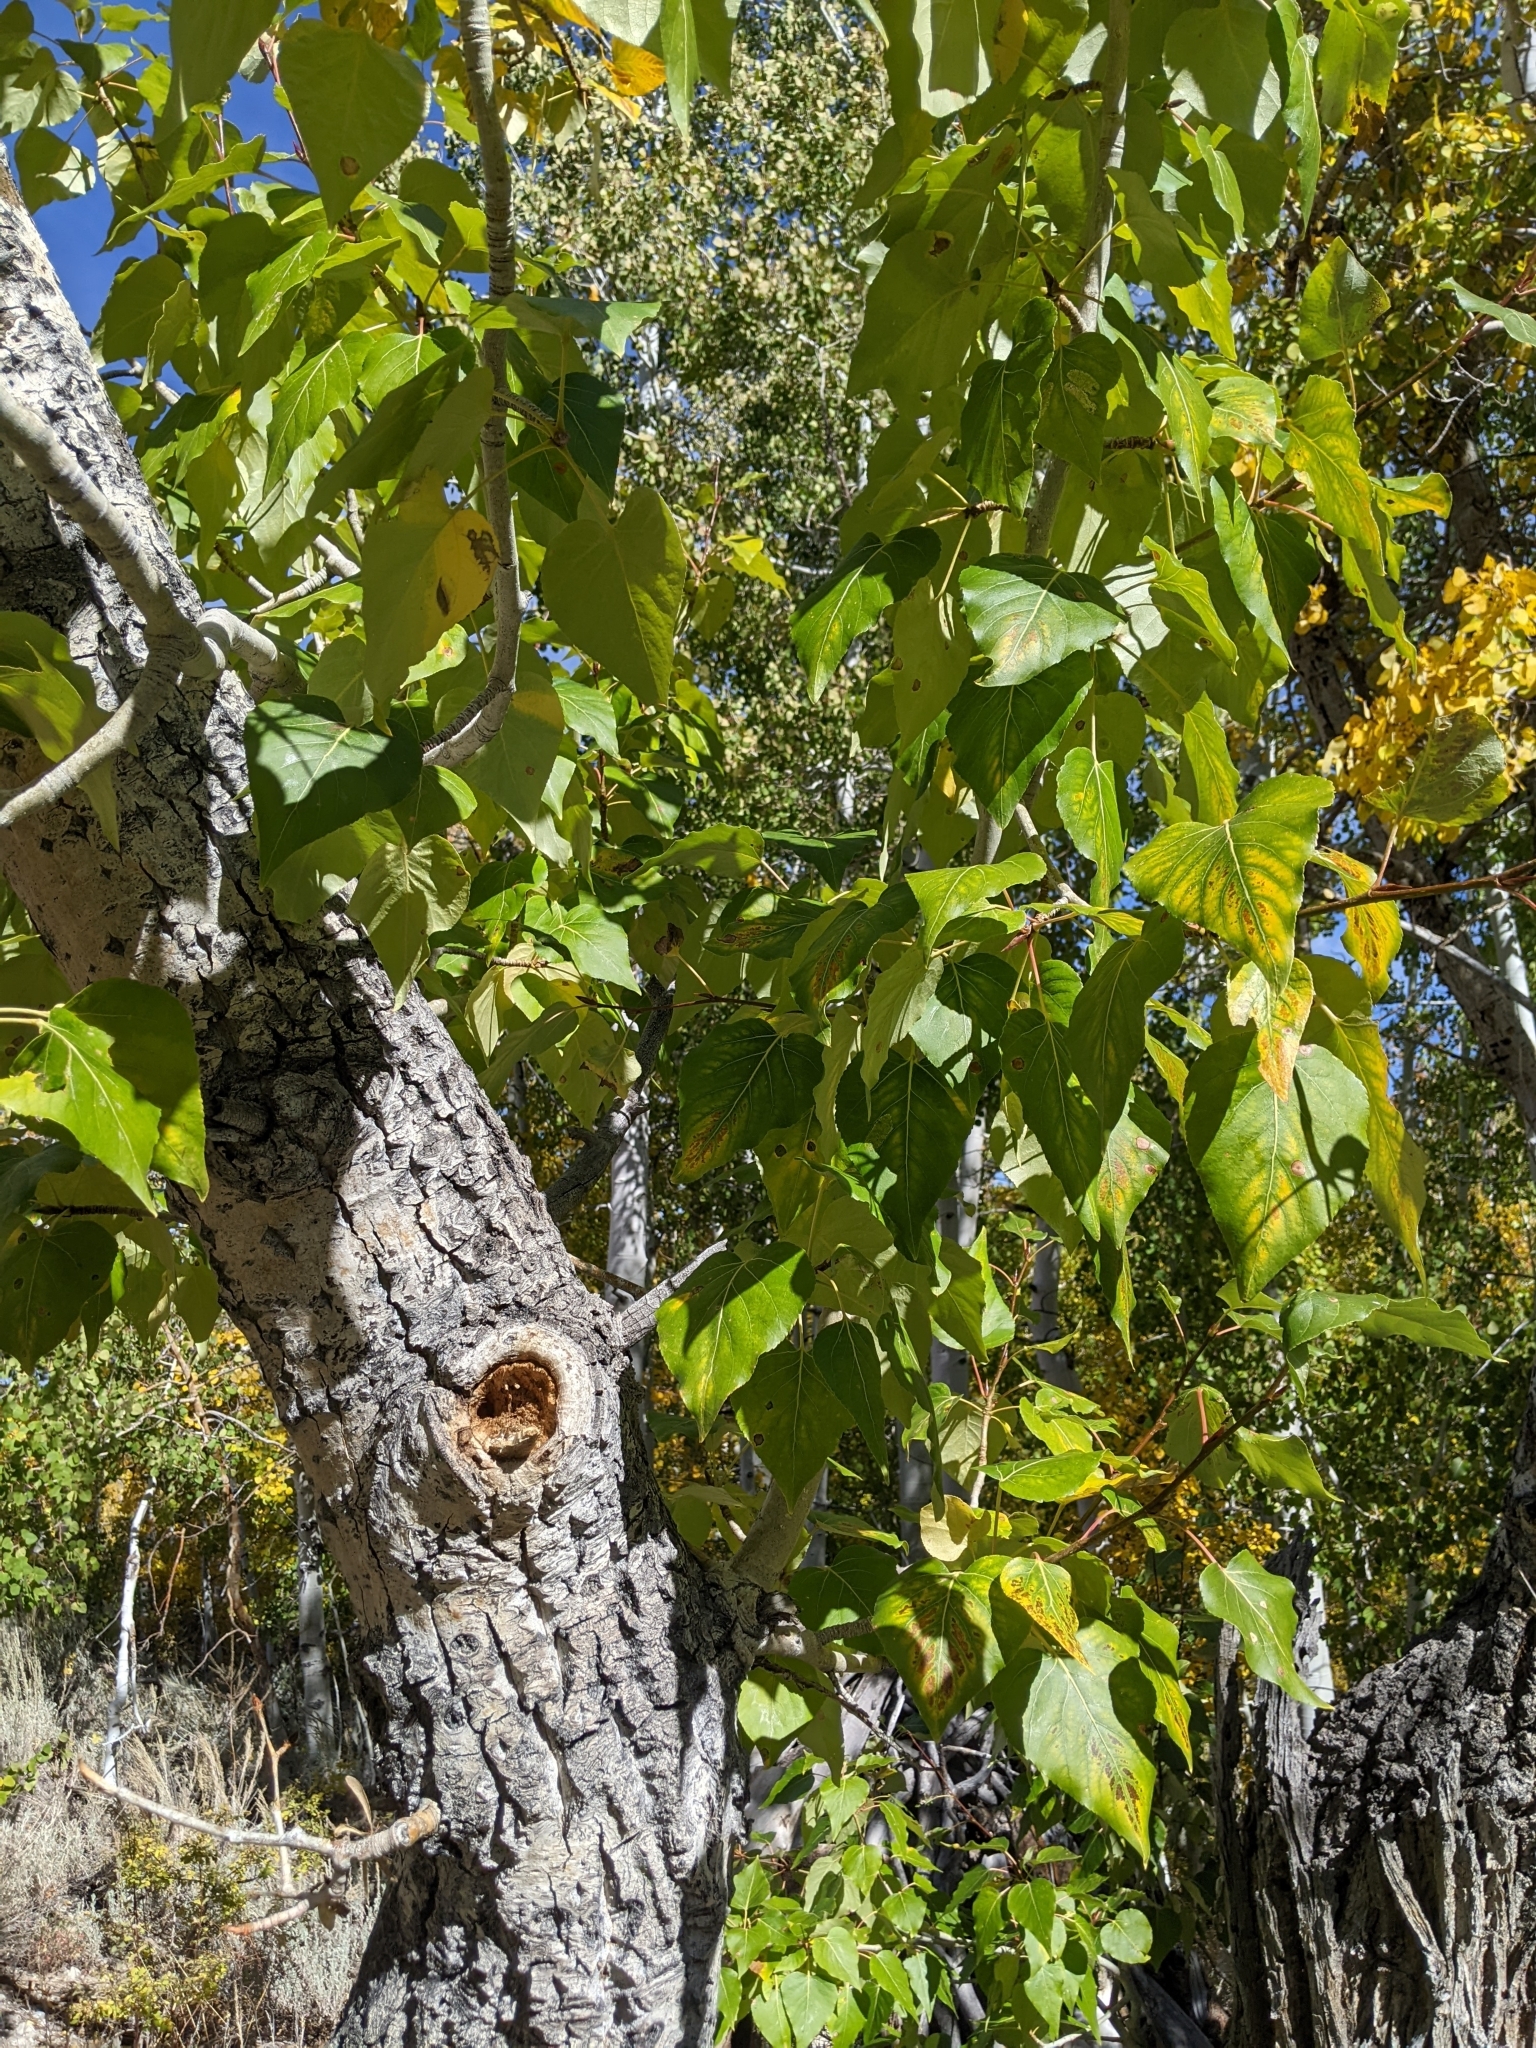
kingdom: Plantae
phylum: Tracheophyta
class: Magnoliopsida
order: Malpighiales
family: Salicaceae
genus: Populus
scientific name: Populus trichocarpa
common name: Black cottonwood
